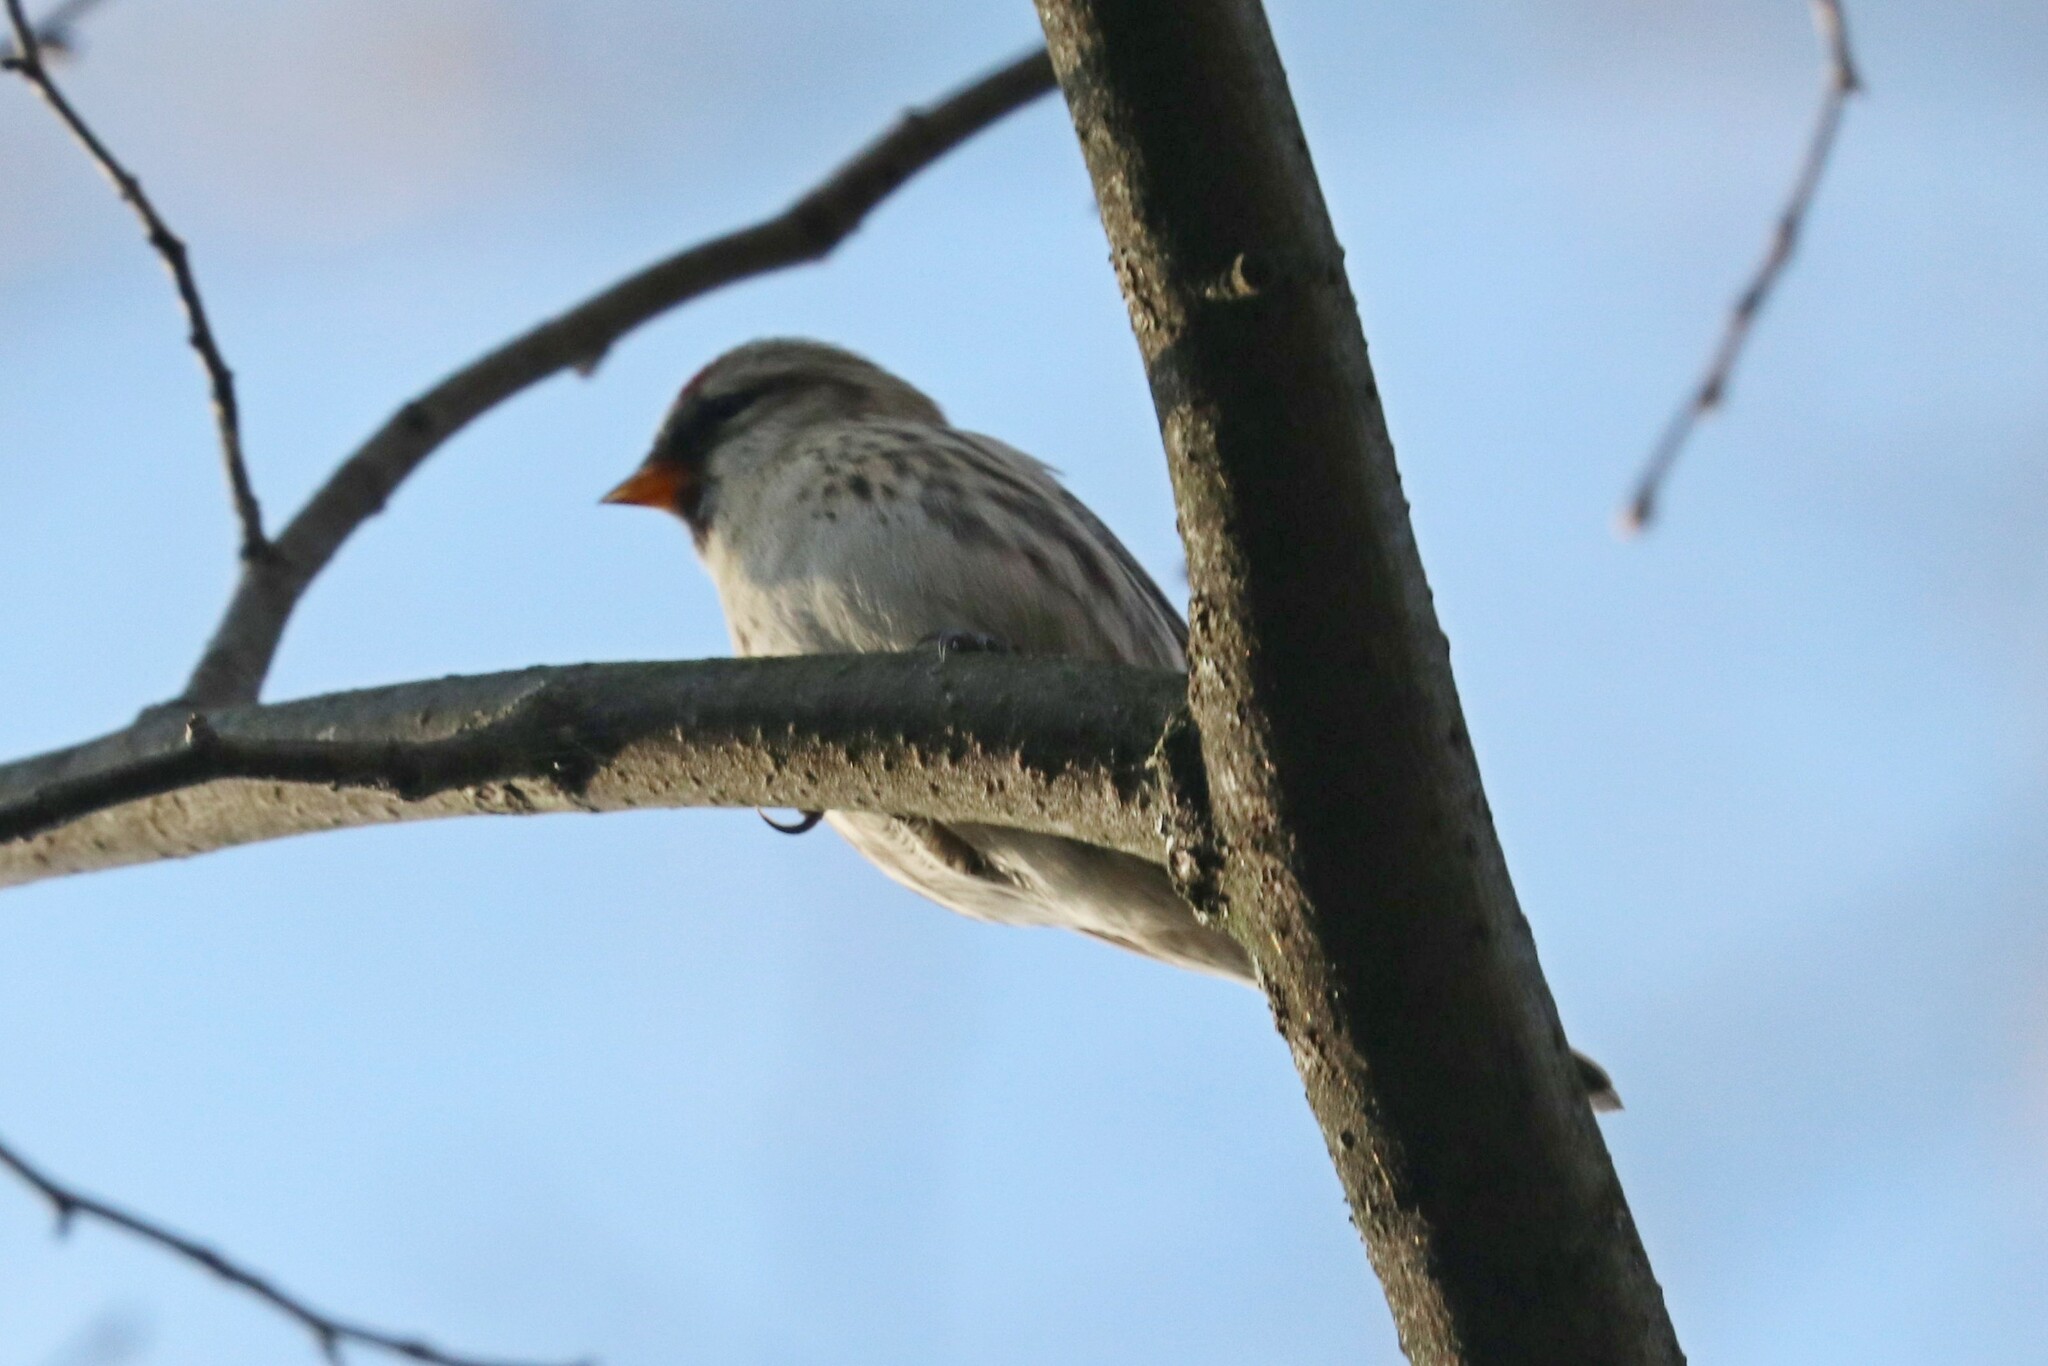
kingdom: Animalia
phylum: Chordata
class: Aves
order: Passeriformes
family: Fringillidae
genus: Acanthis
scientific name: Acanthis flammea
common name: Common redpoll
